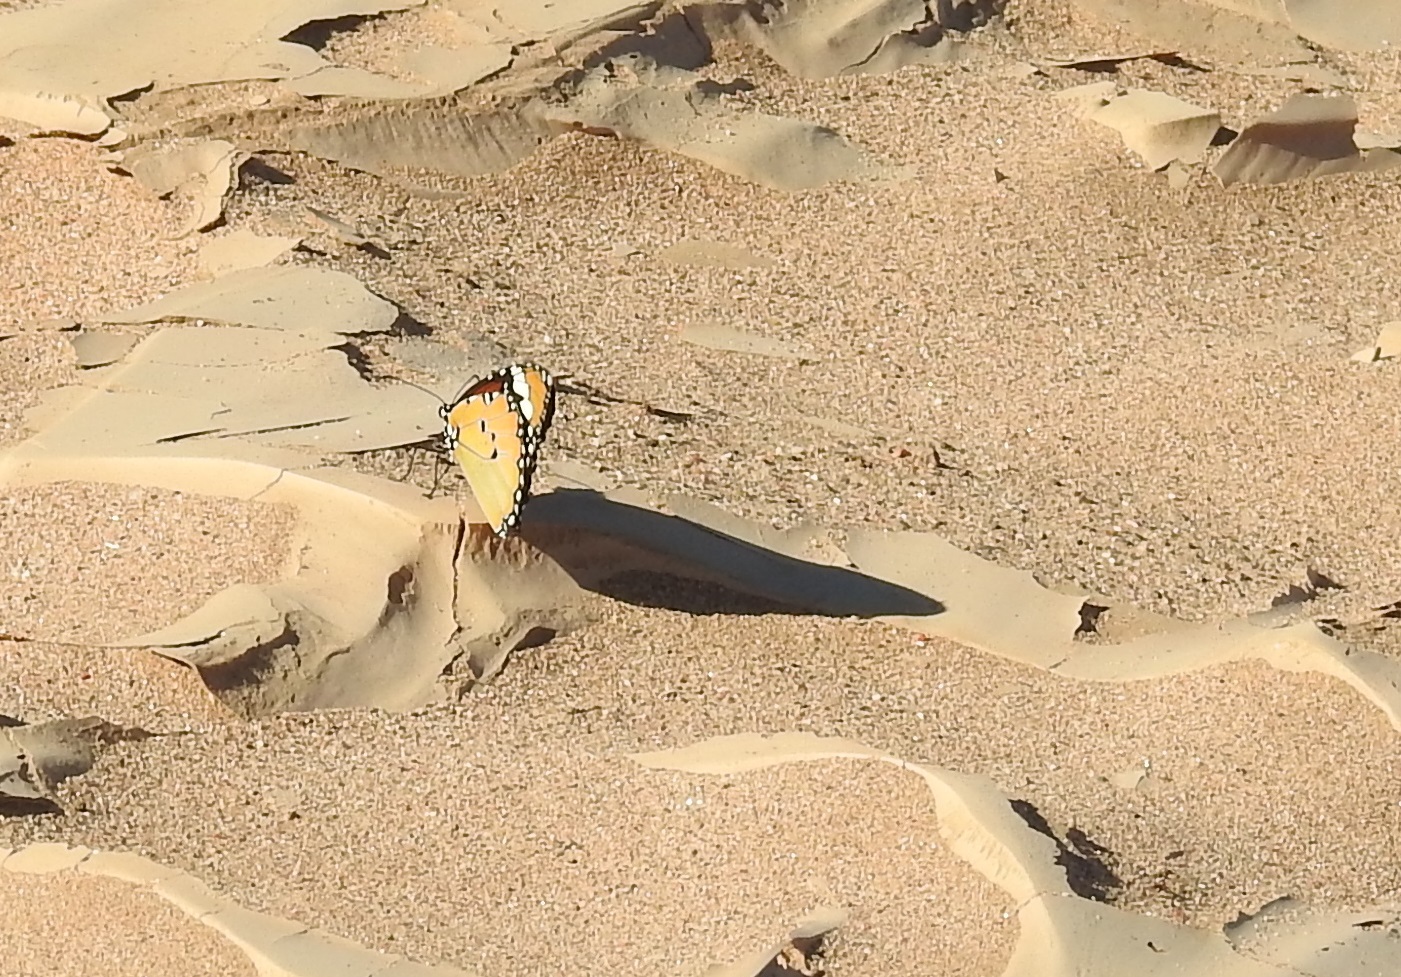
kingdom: Animalia
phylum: Arthropoda
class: Insecta
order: Lepidoptera
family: Nymphalidae
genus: Danaus
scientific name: Danaus chrysippus
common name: Plain tiger
